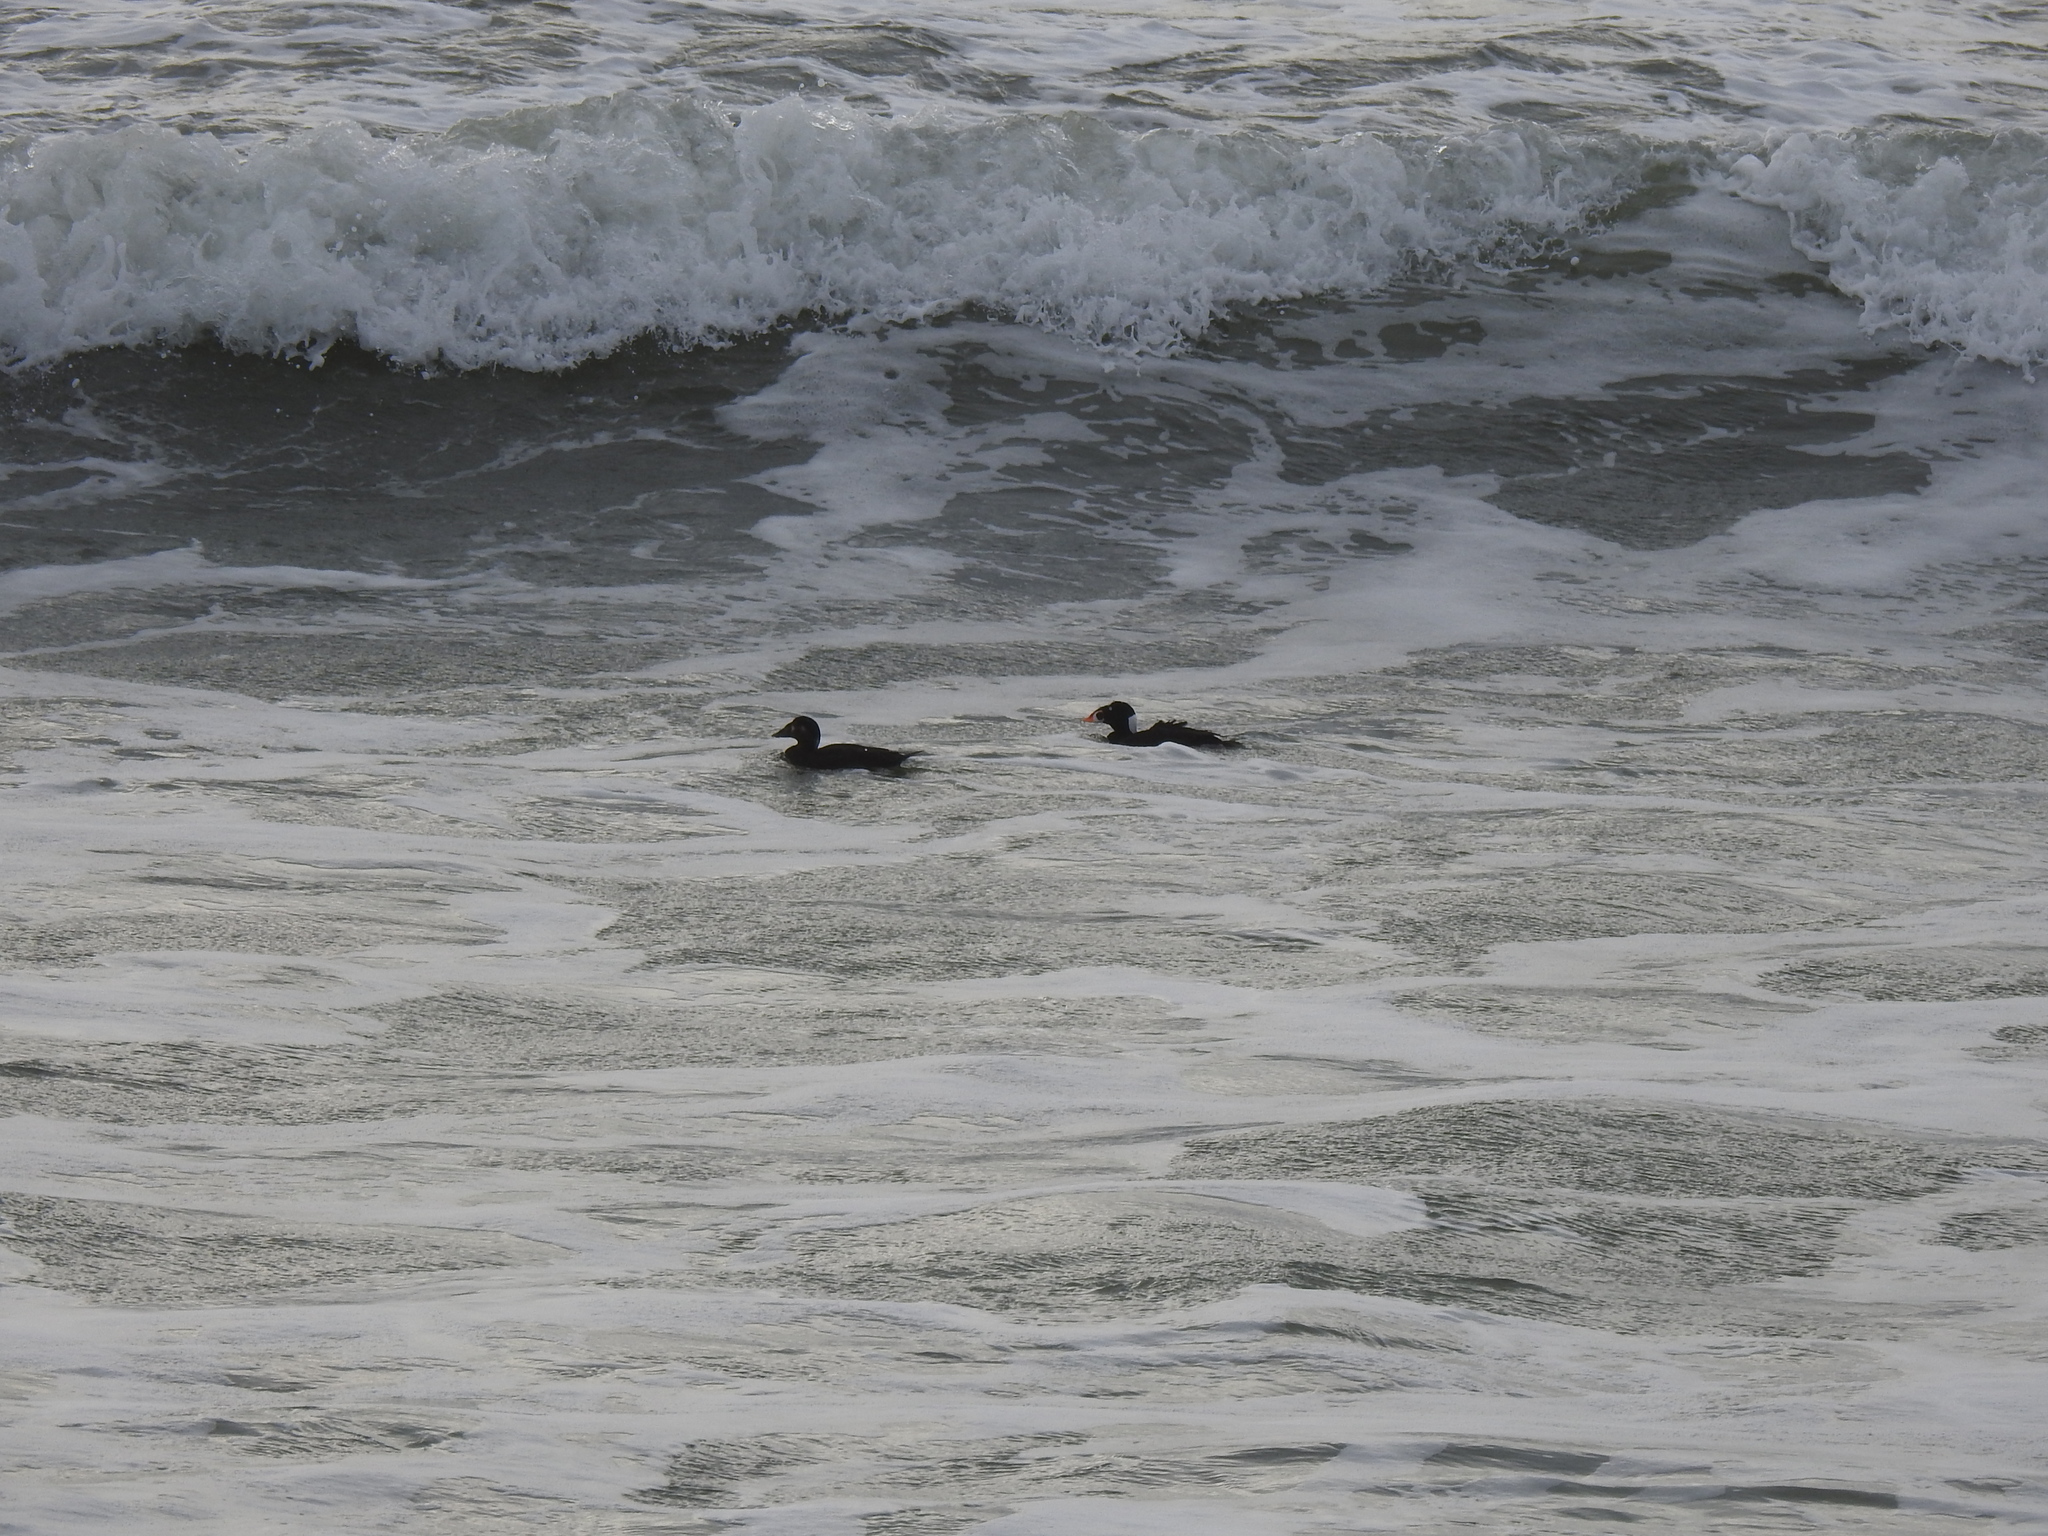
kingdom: Animalia
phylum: Chordata
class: Aves
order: Anseriformes
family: Anatidae
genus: Melanitta
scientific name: Melanitta perspicillata
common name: Surf scoter
